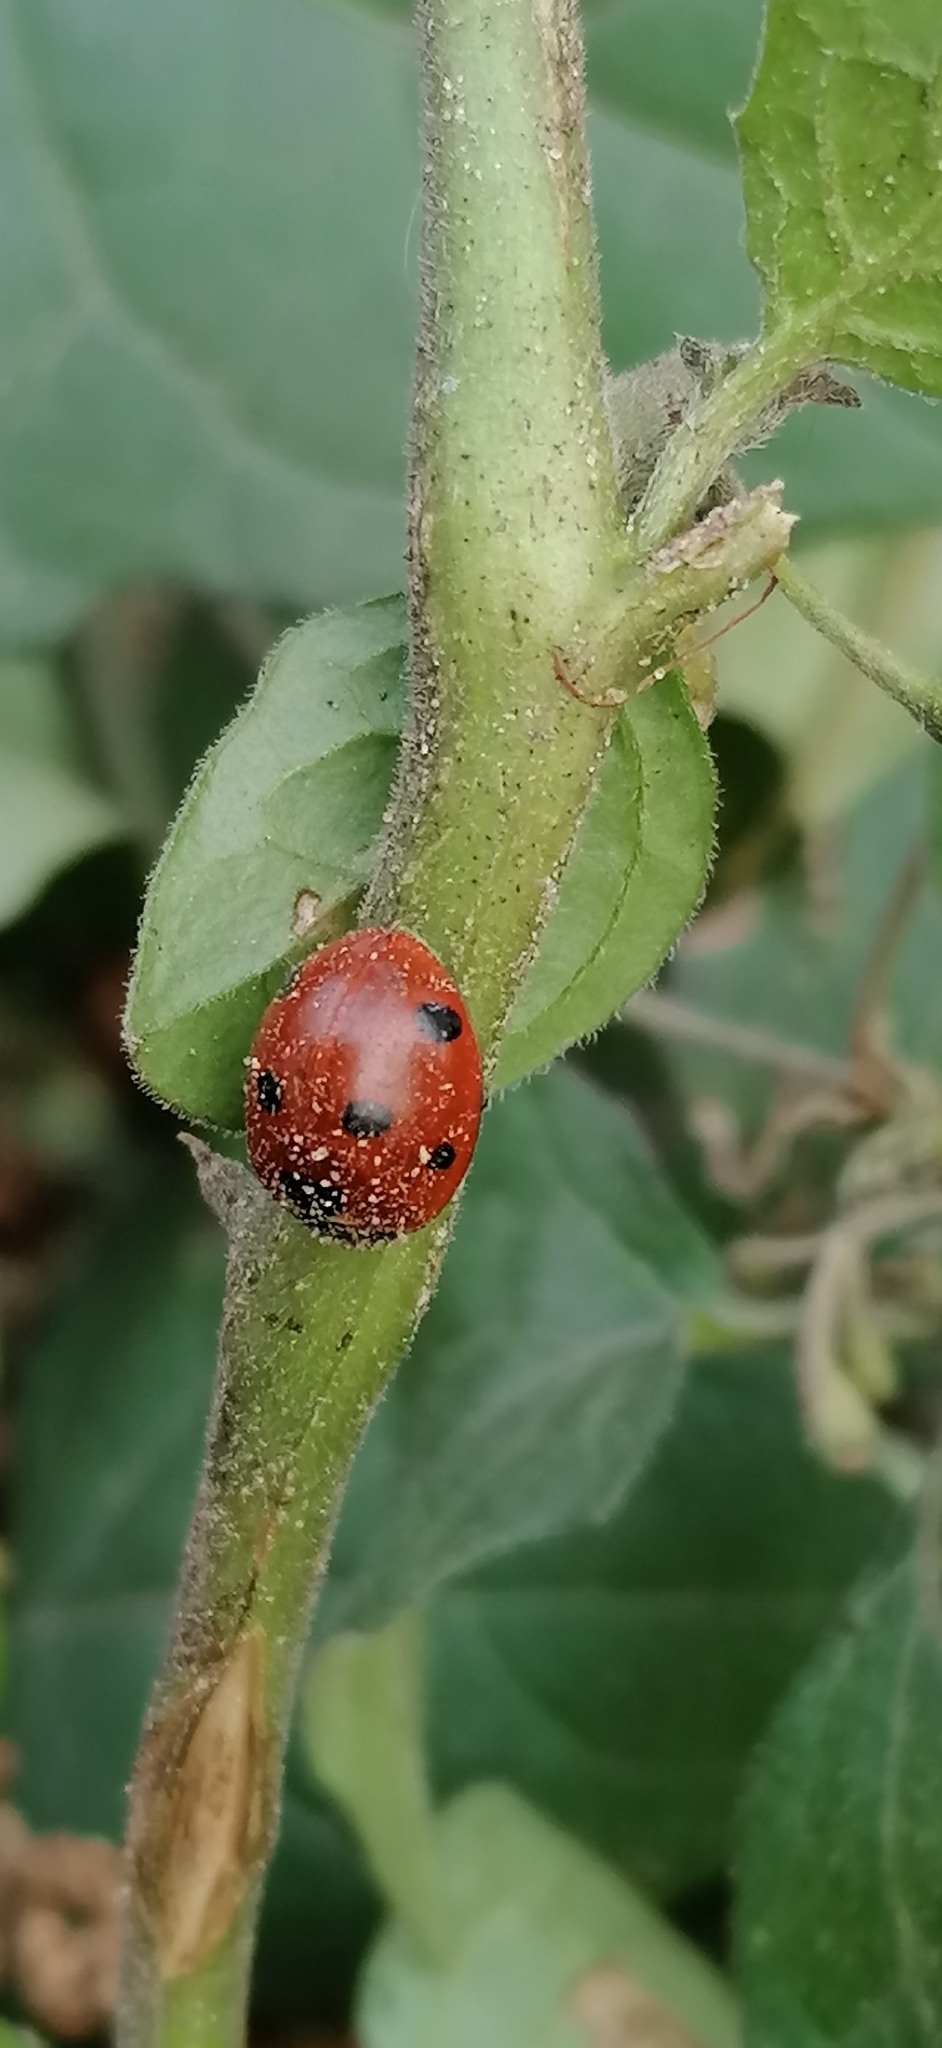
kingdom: Animalia
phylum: Arthropoda
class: Insecta
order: Coleoptera
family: Coccinellidae
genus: Coccinella
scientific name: Coccinella septempunctata
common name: Sevenspotted lady beetle
